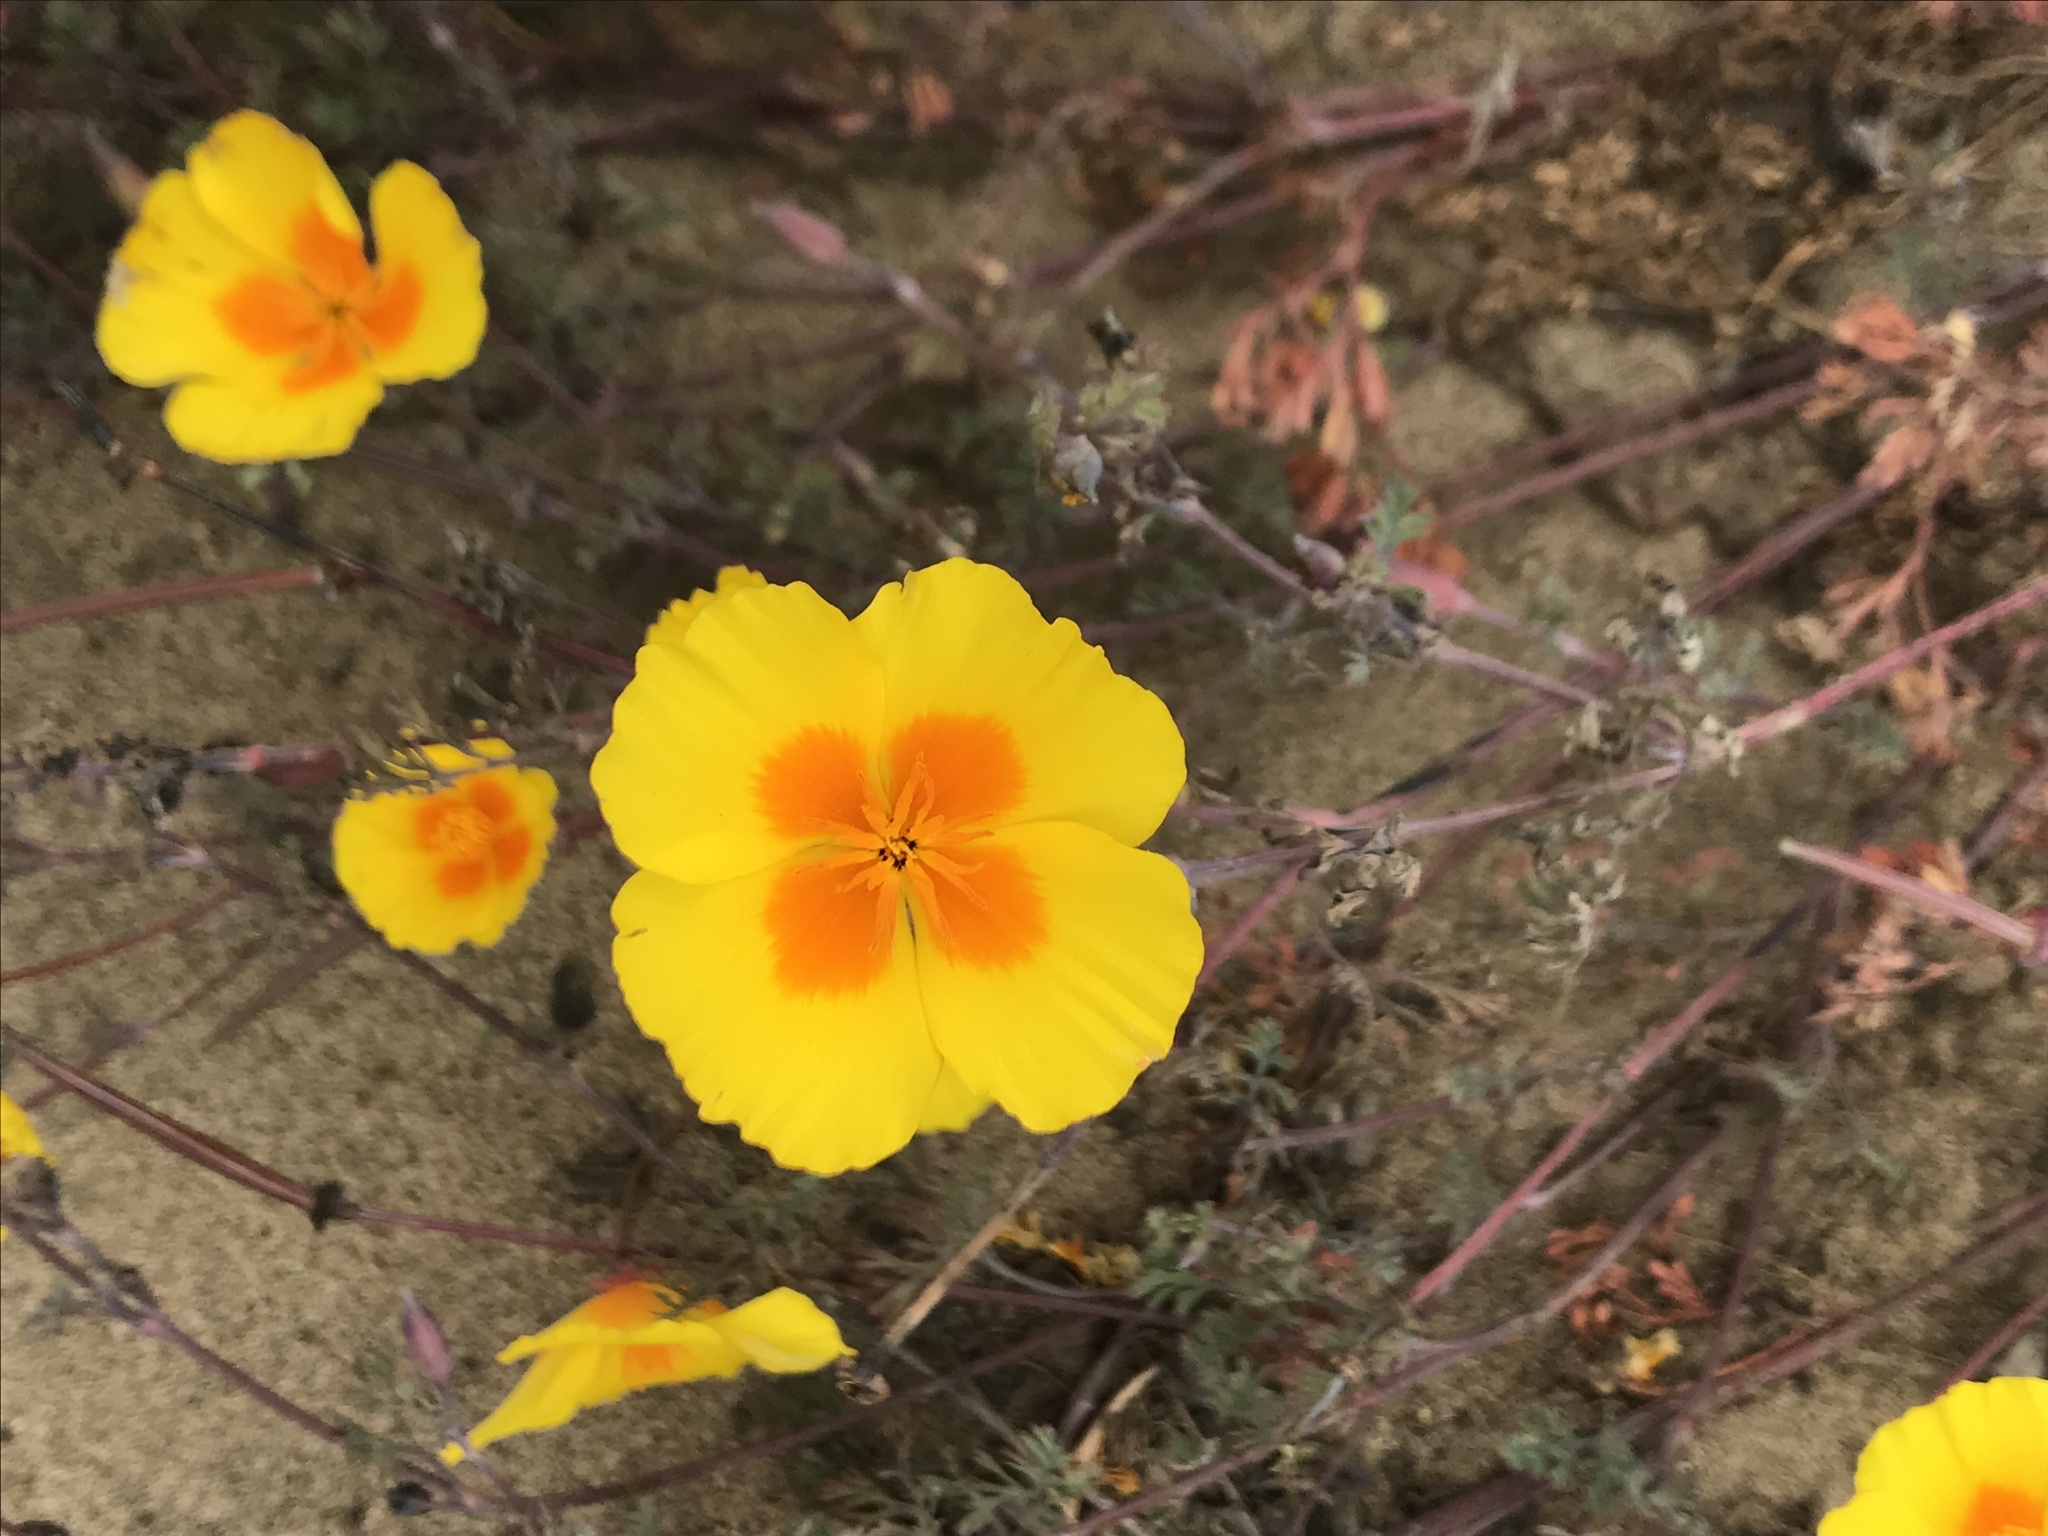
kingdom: Plantae
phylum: Tracheophyta
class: Magnoliopsida
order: Ranunculales
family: Papaveraceae
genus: Eschscholzia
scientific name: Eschscholzia californica
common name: California poppy
